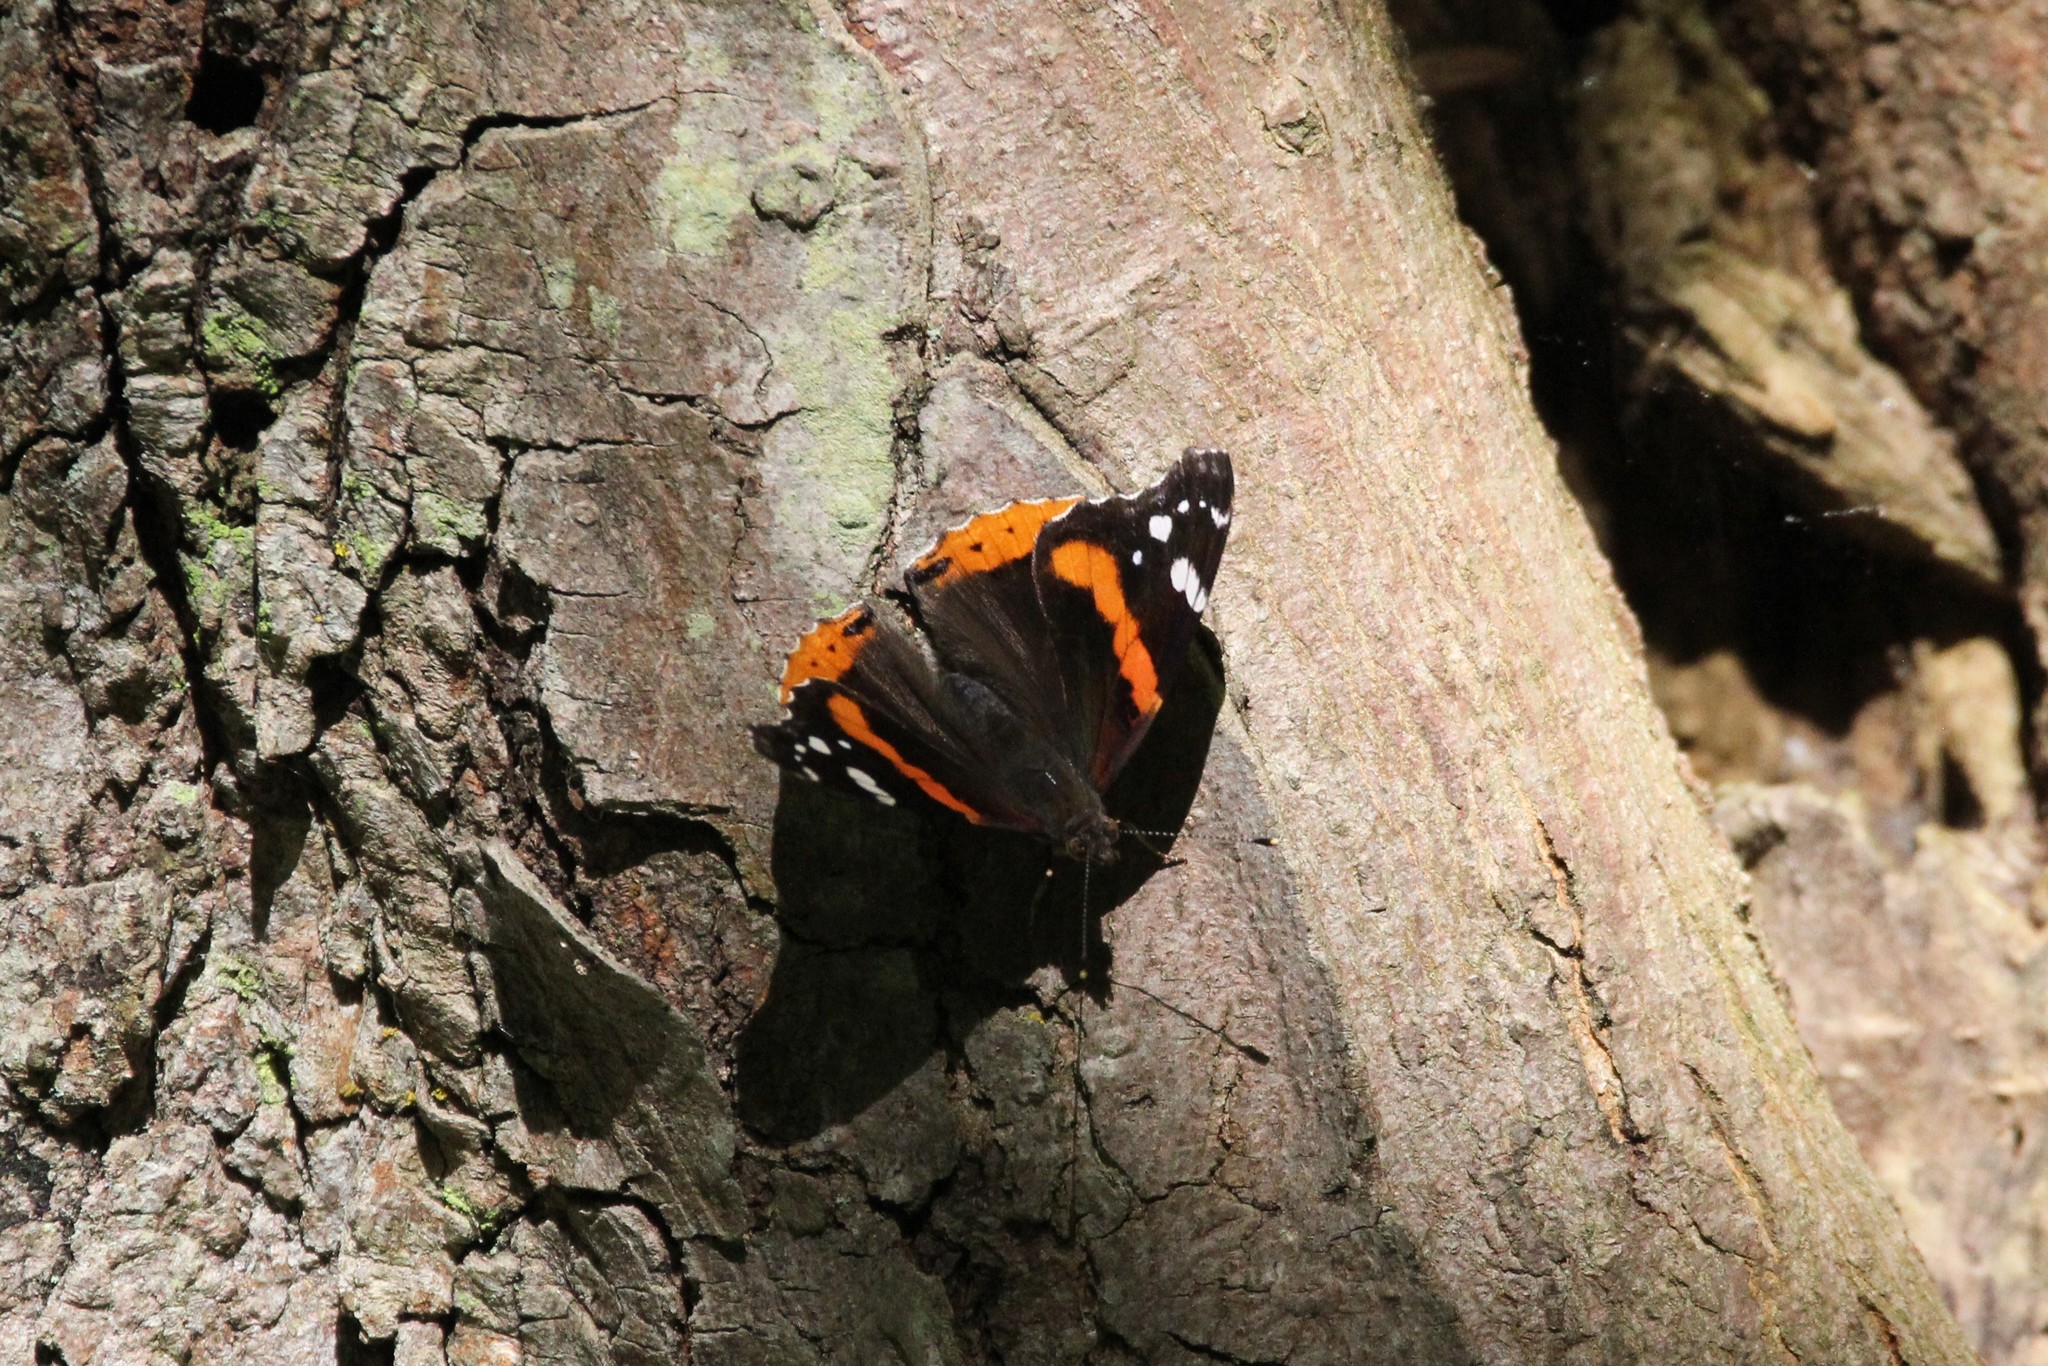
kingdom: Animalia
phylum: Arthropoda
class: Insecta
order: Lepidoptera
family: Nymphalidae
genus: Vanessa
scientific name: Vanessa atalanta
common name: Red admiral
